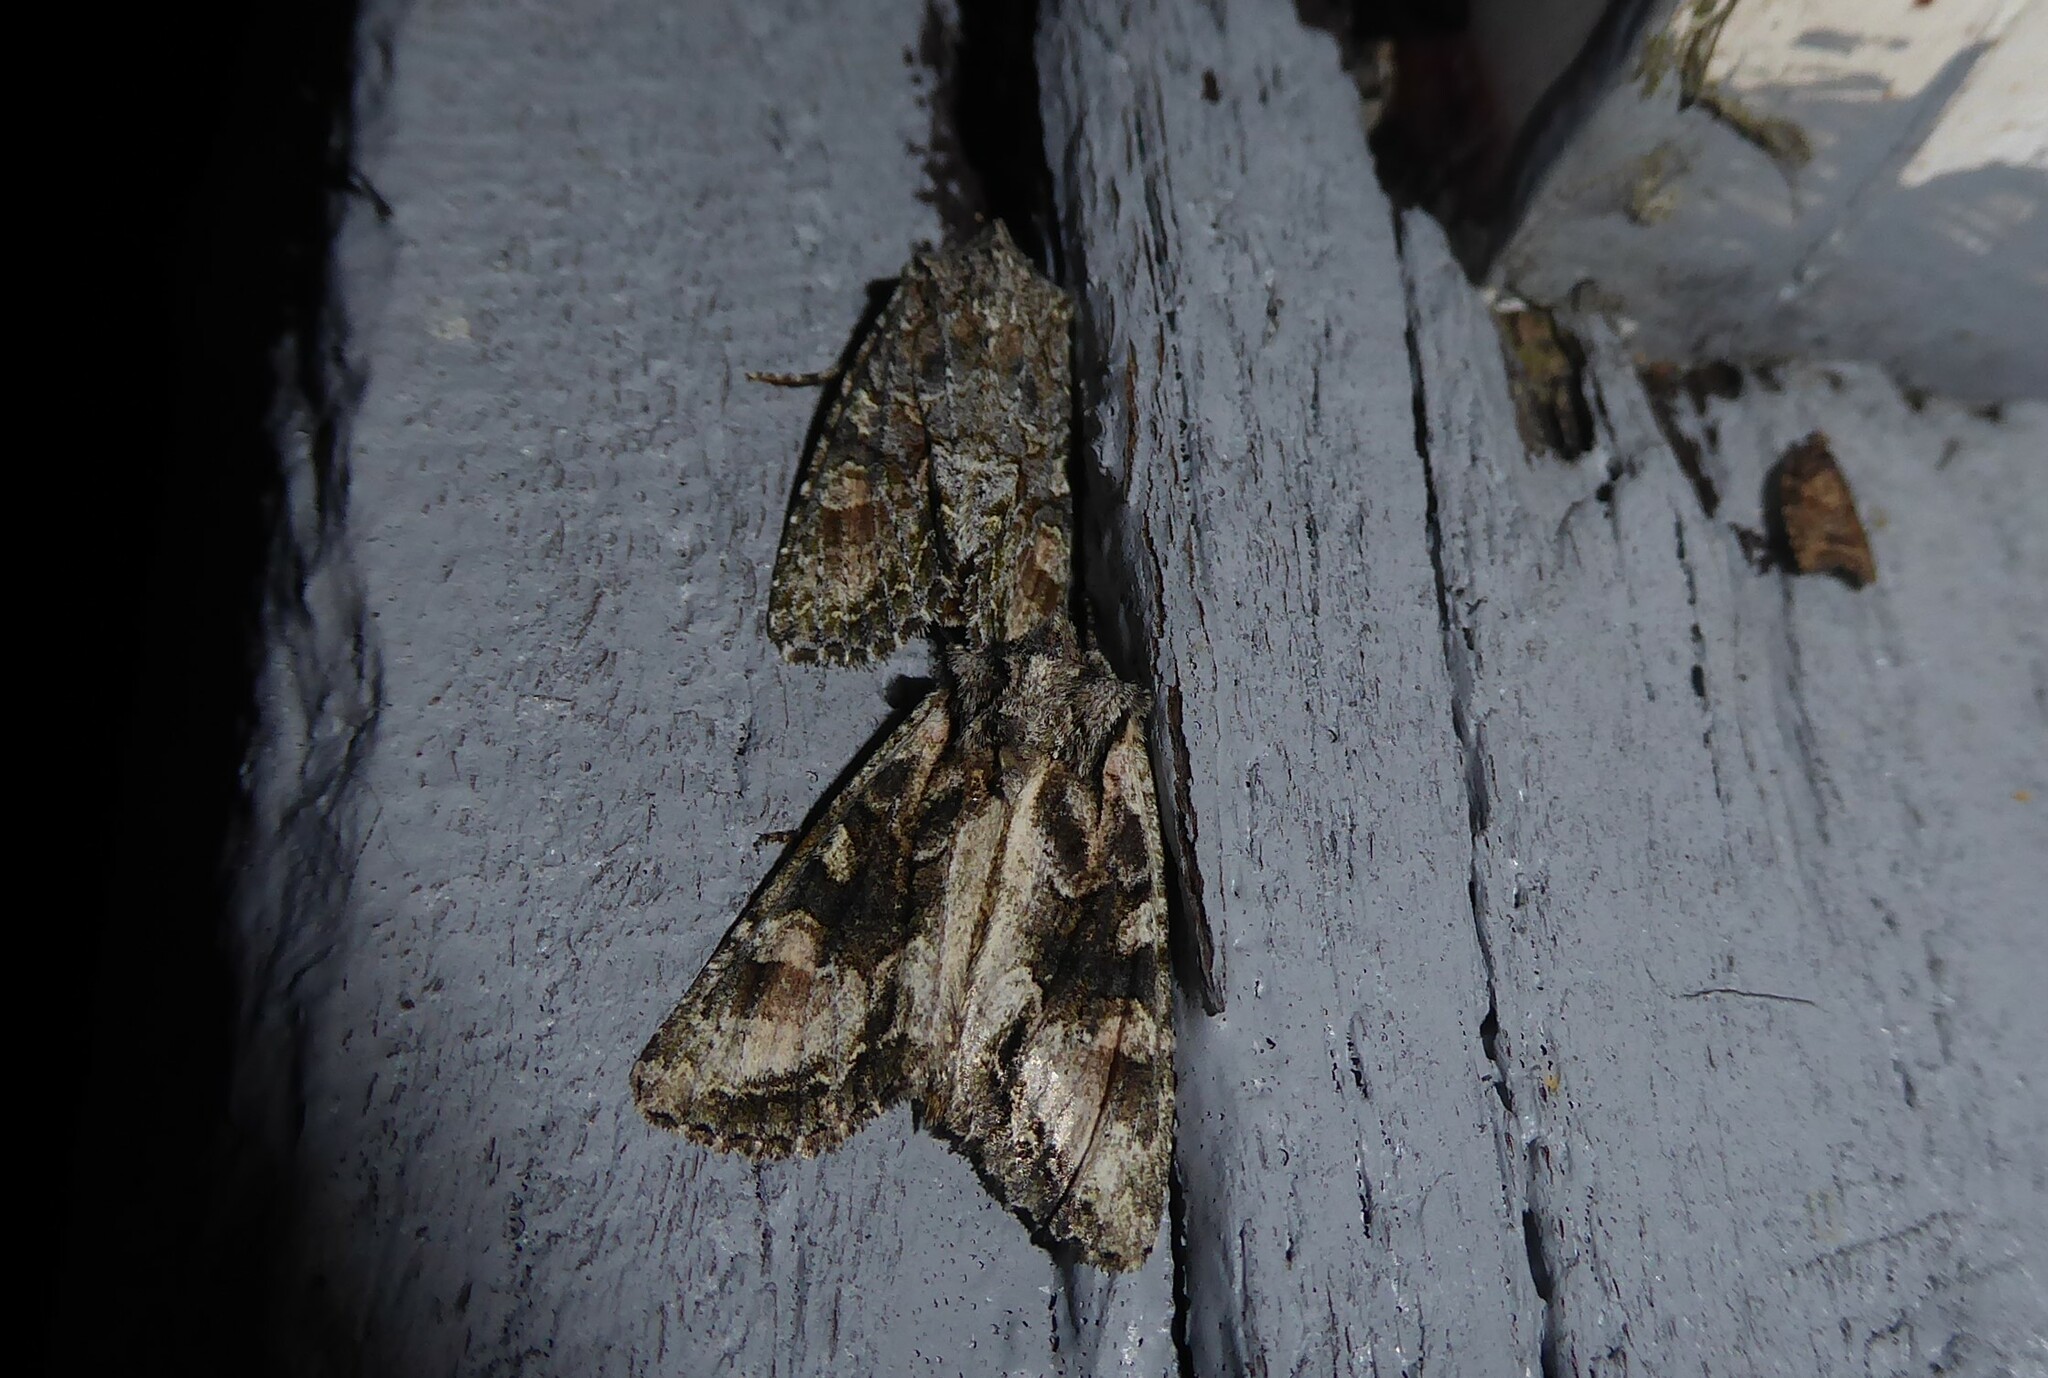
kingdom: Animalia
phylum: Arthropoda
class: Insecta
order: Lepidoptera
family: Noctuidae
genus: Ichneutica
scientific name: Ichneutica mutans
